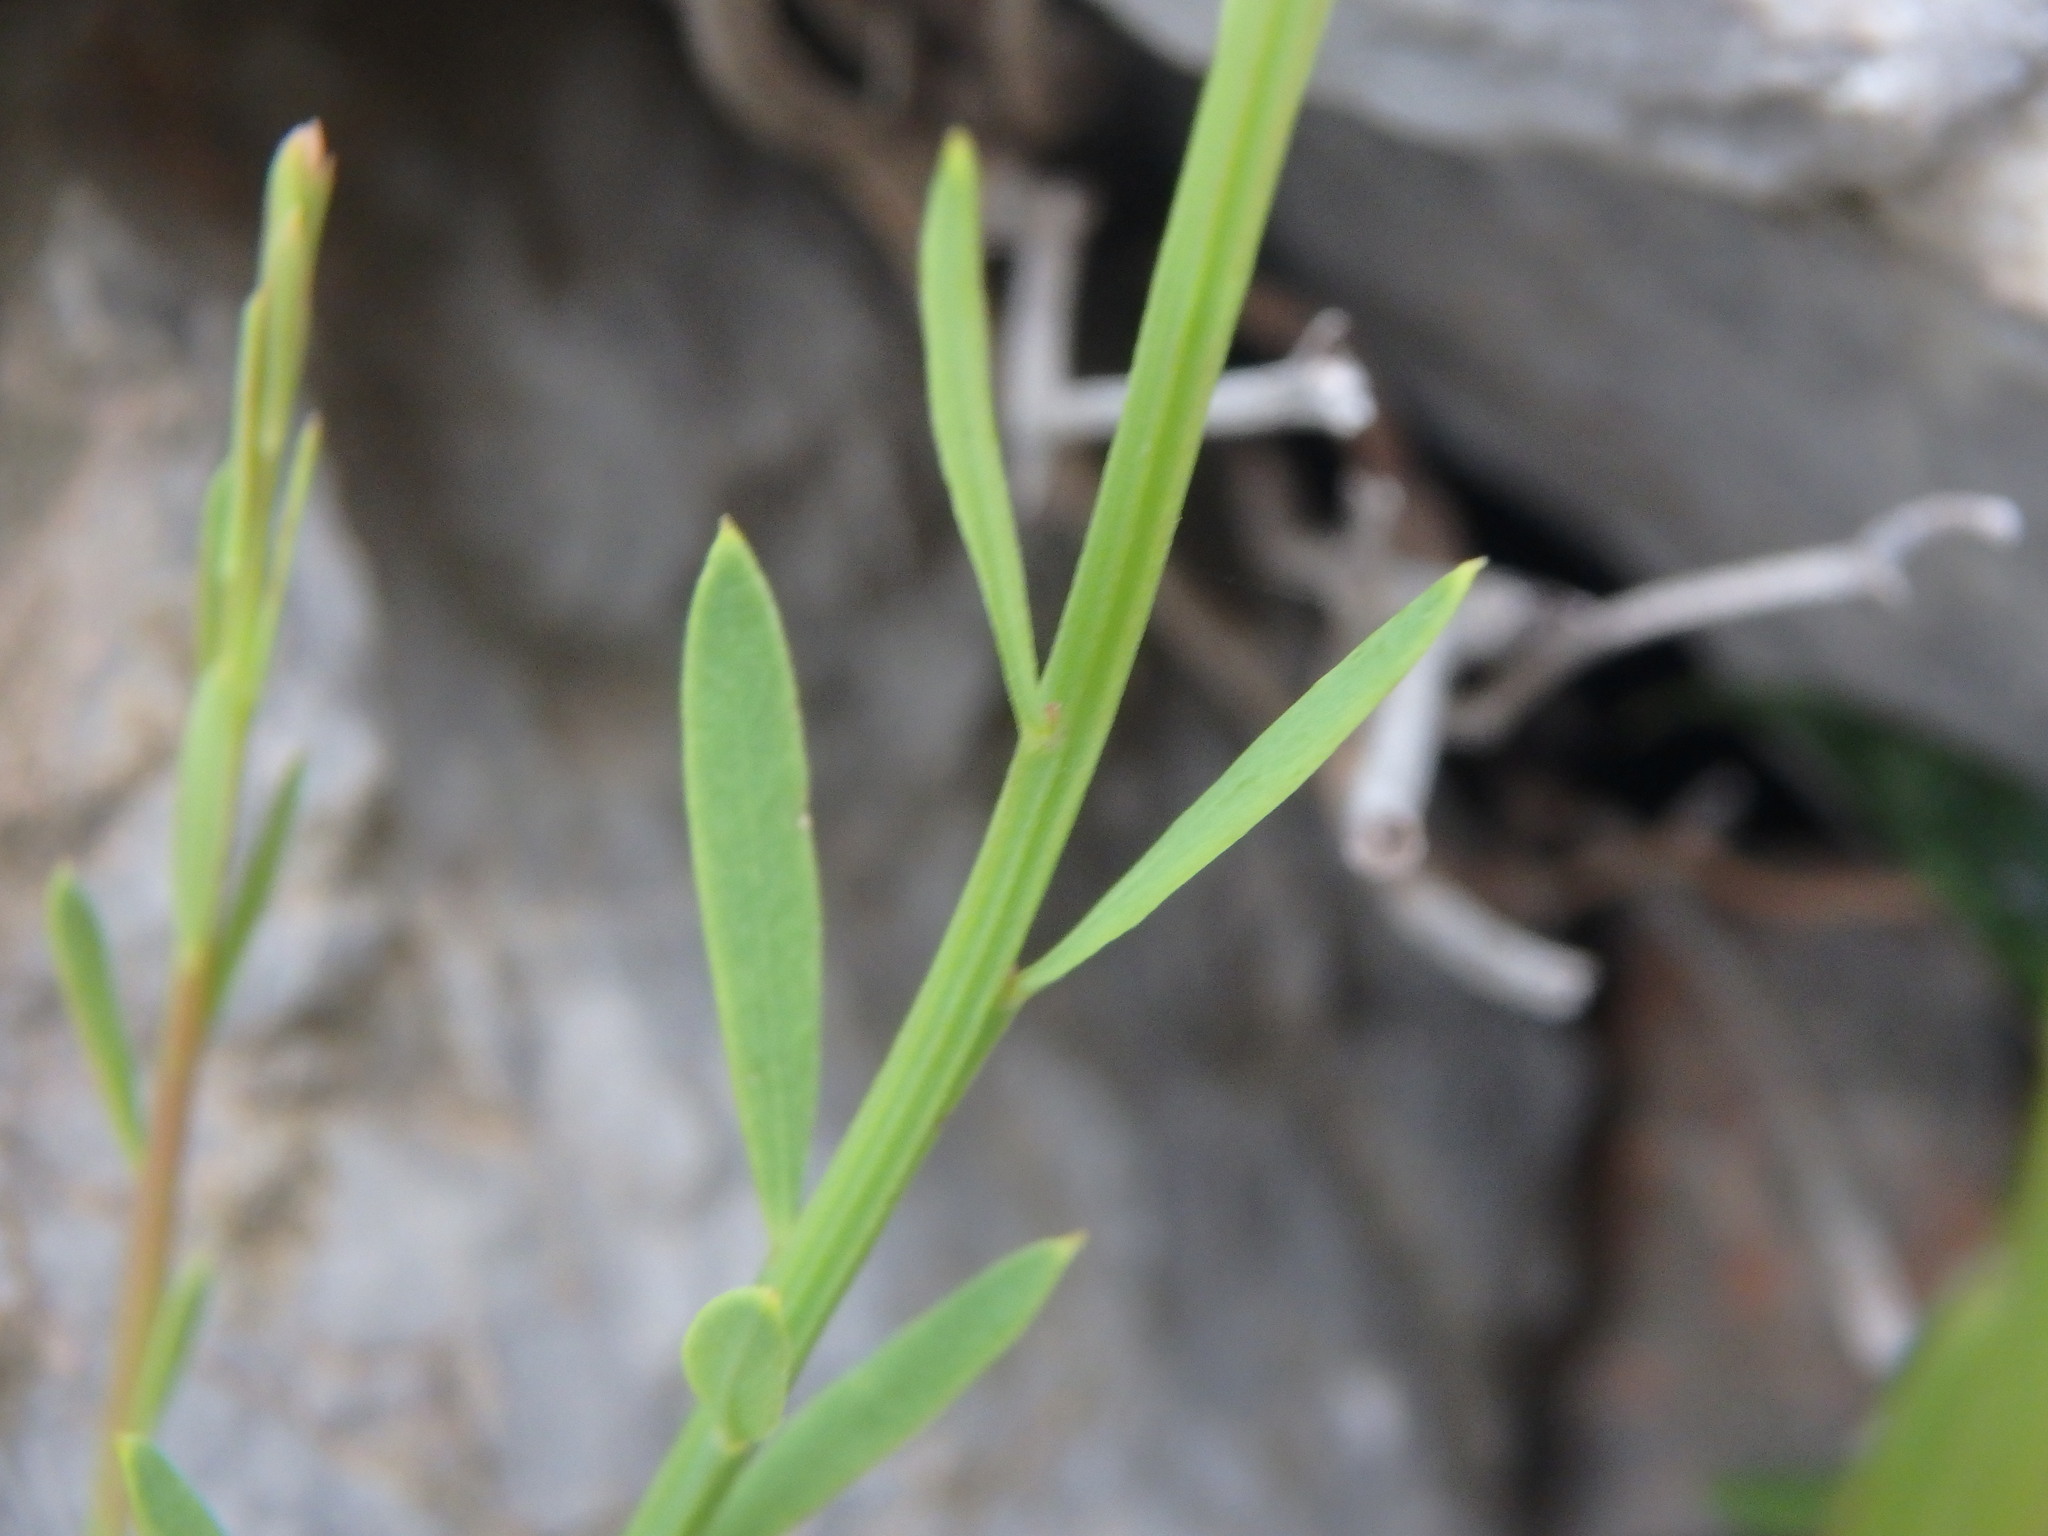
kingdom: Plantae
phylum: Tracheophyta
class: Magnoliopsida
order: Santalales
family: Santalaceae
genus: Osyris
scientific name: Osyris alba
